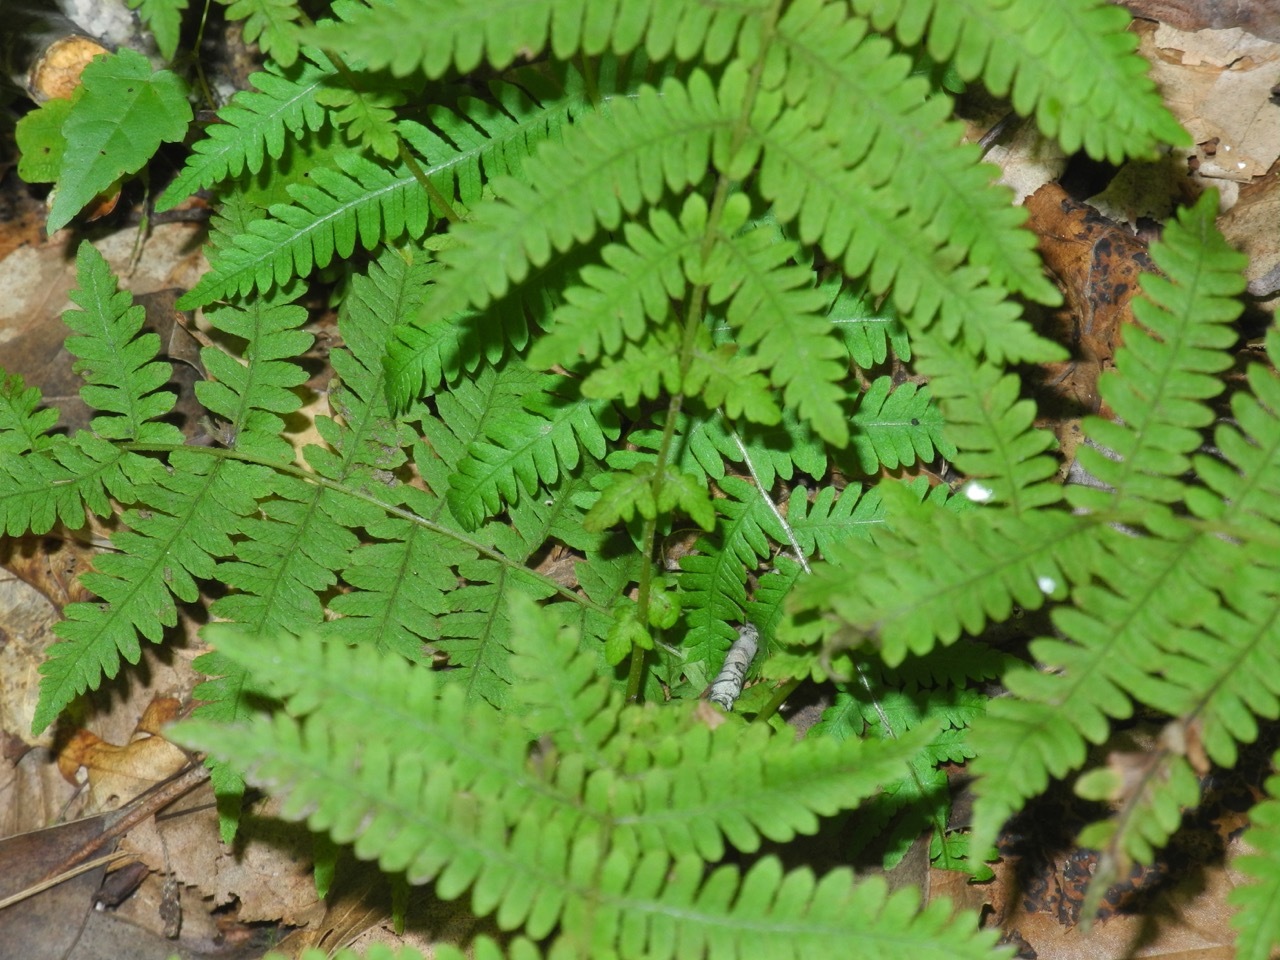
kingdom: Plantae
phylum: Tracheophyta
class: Polypodiopsida
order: Polypodiales
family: Thelypteridaceae
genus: Amauropelta
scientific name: Amauropelta noveboracensis
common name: New york fern
